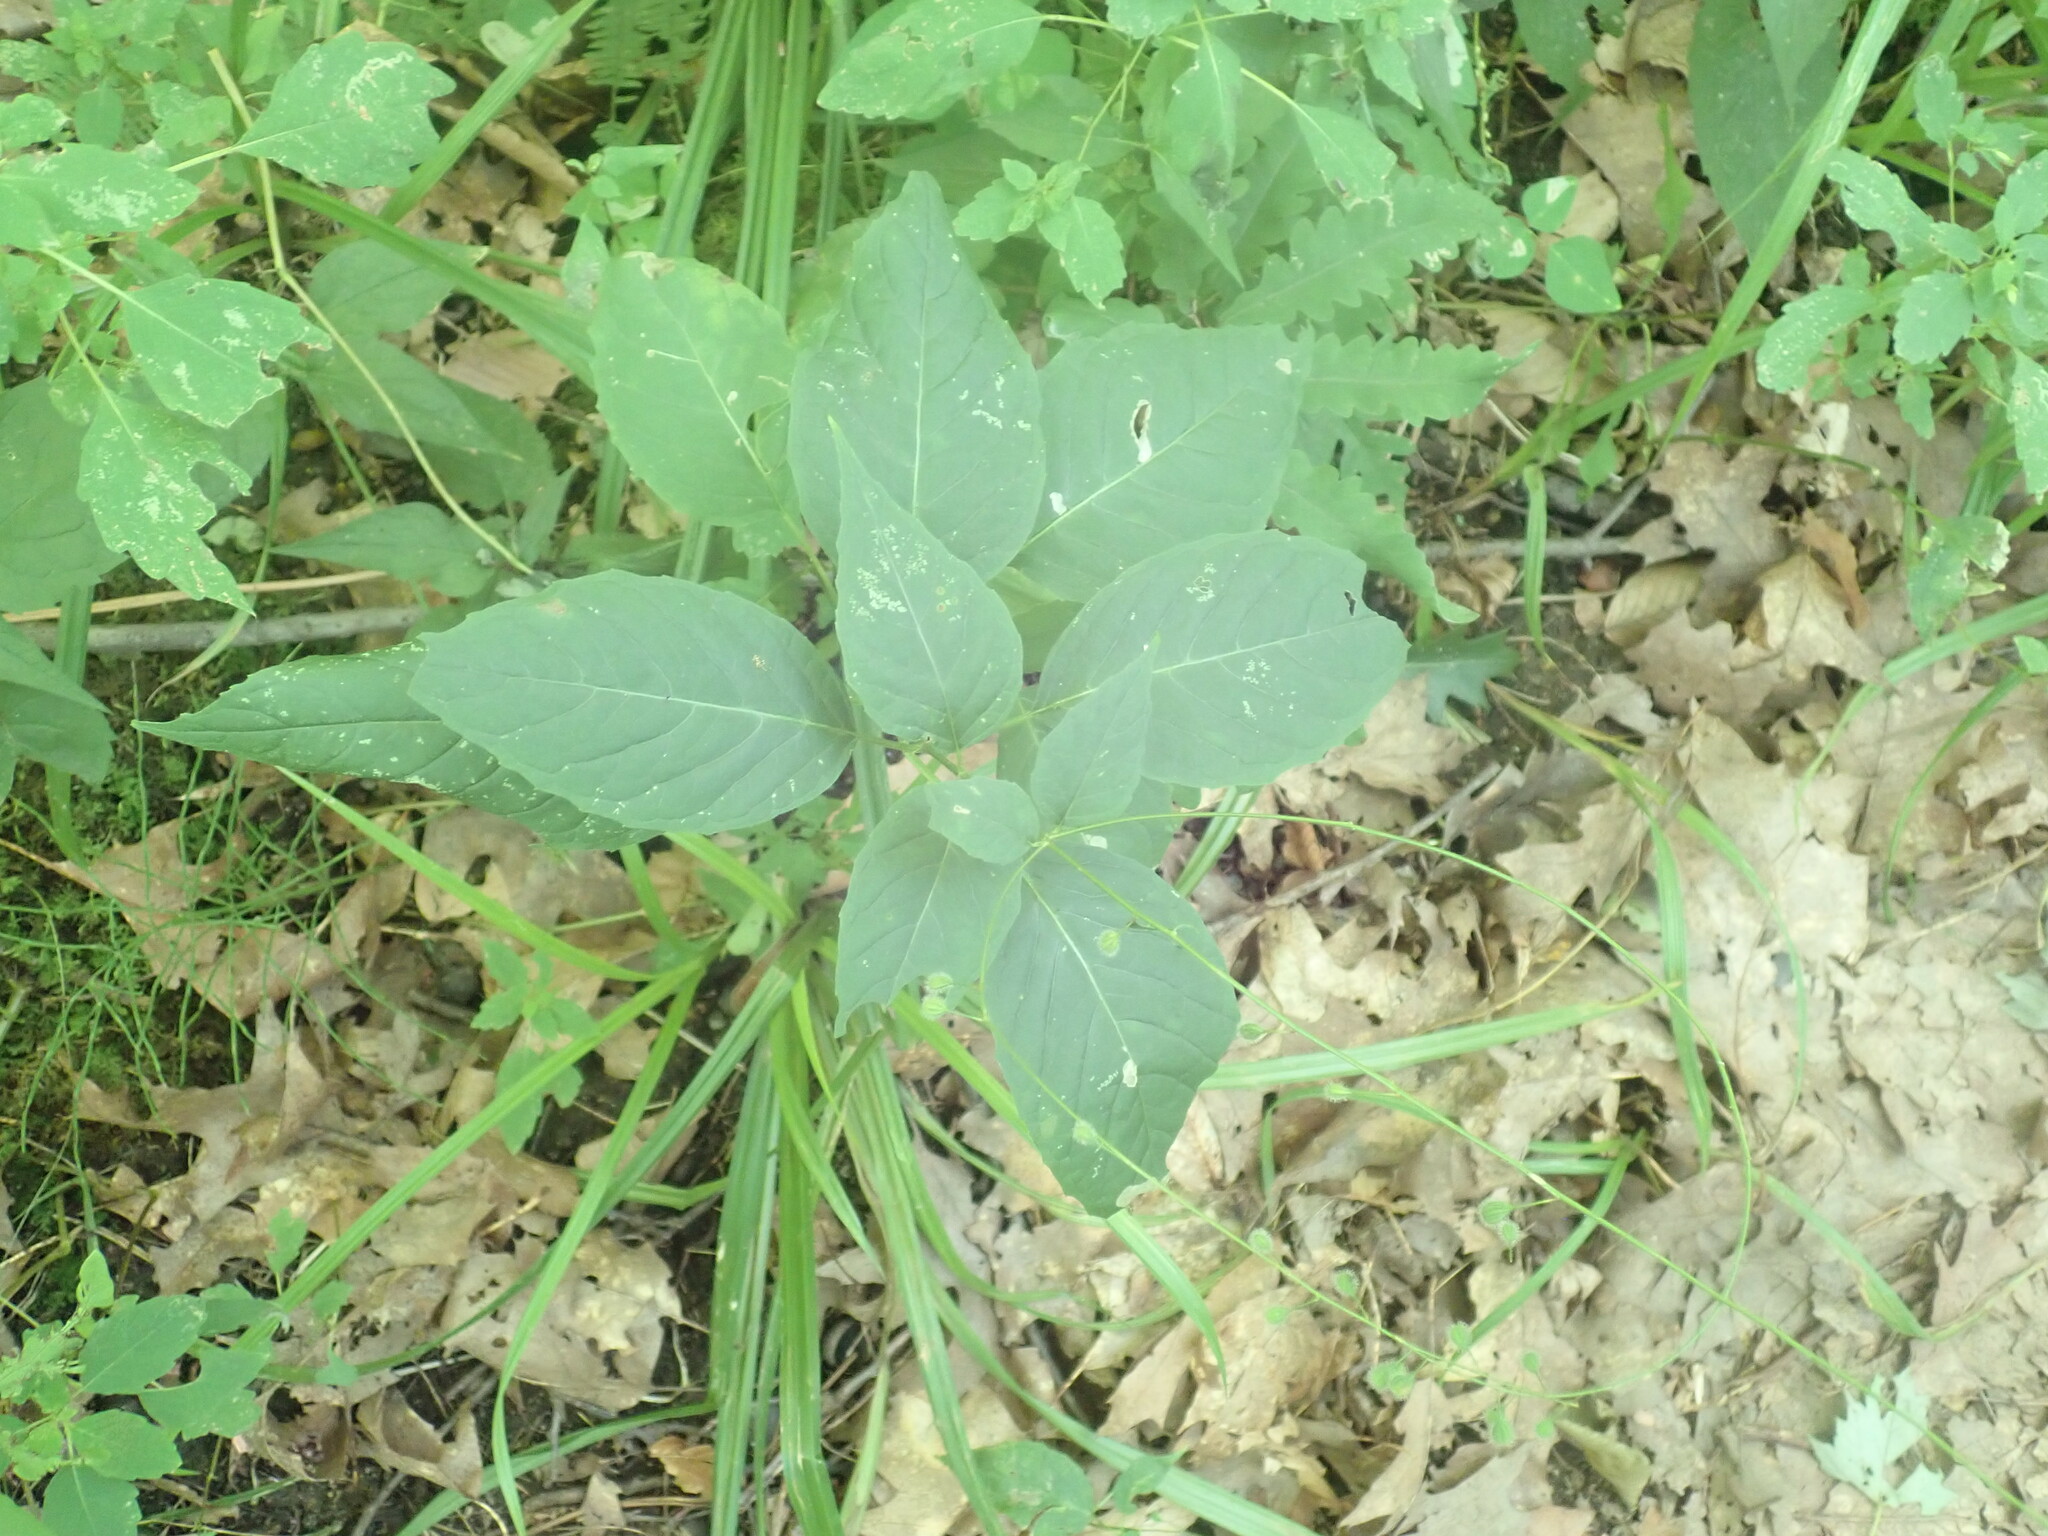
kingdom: Plantae
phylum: Tracheophyta
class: Magnoliopsida
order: Myrtales
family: Onagraceae
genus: Circaea
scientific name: Circaea canadensis
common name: Broad-leaved enchanter's nightshade
